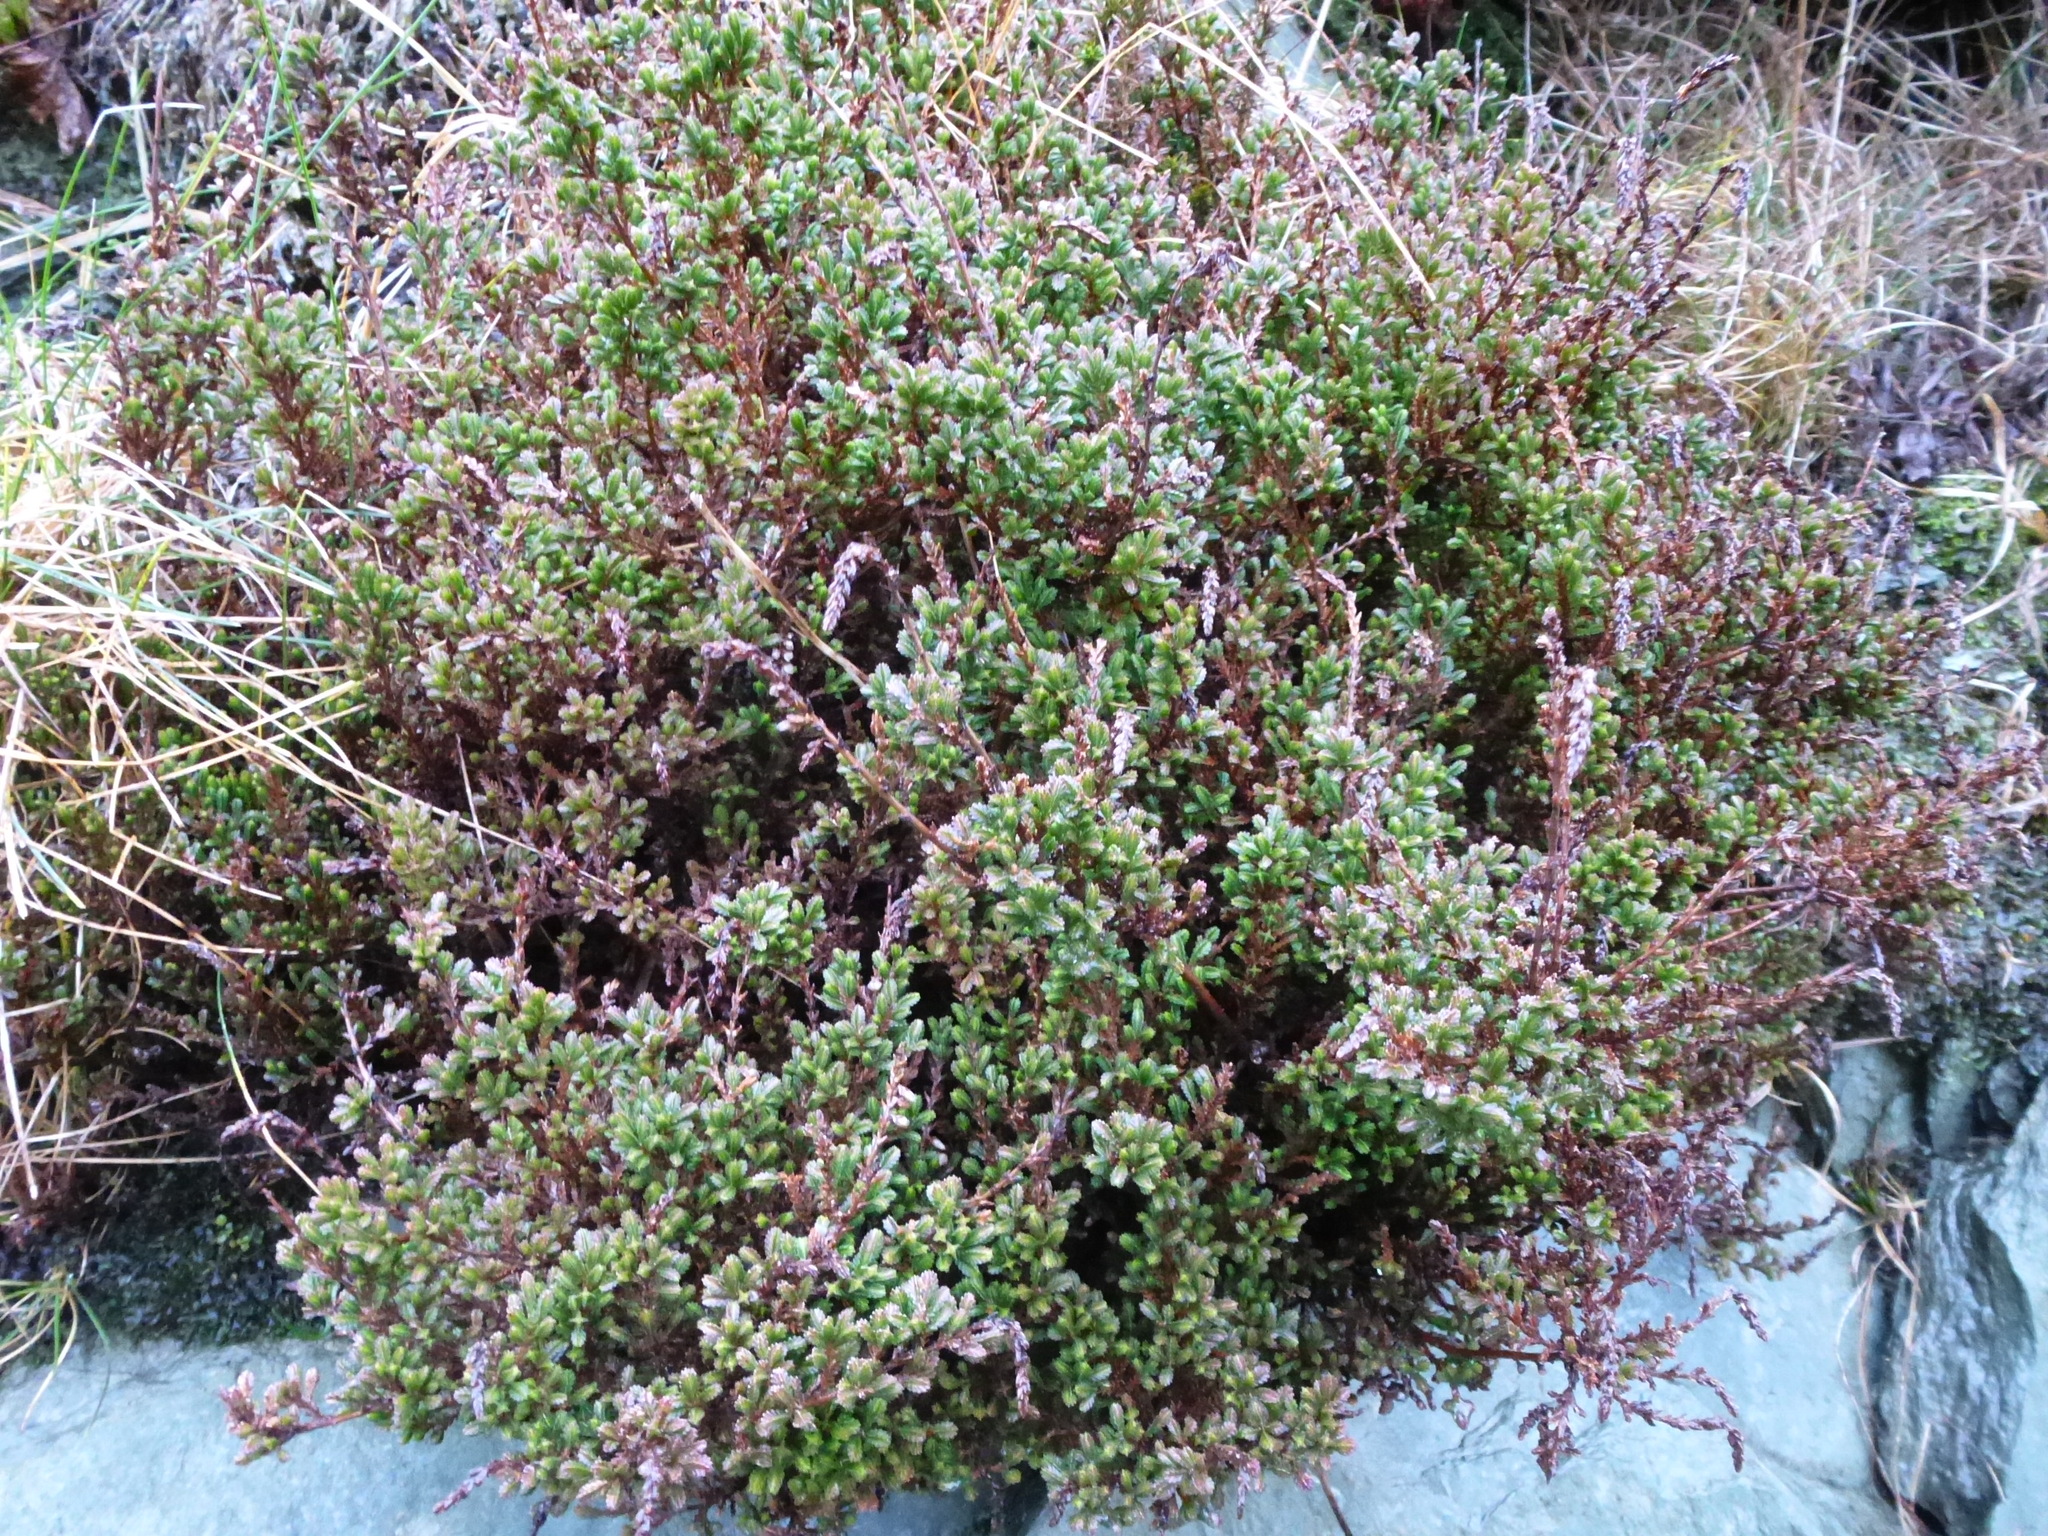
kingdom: Plantae
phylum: Tracheophyta
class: Magnoliopsida
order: Ericales
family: Ericaceae
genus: Calluna
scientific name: Calluna vulgaris
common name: Heather
